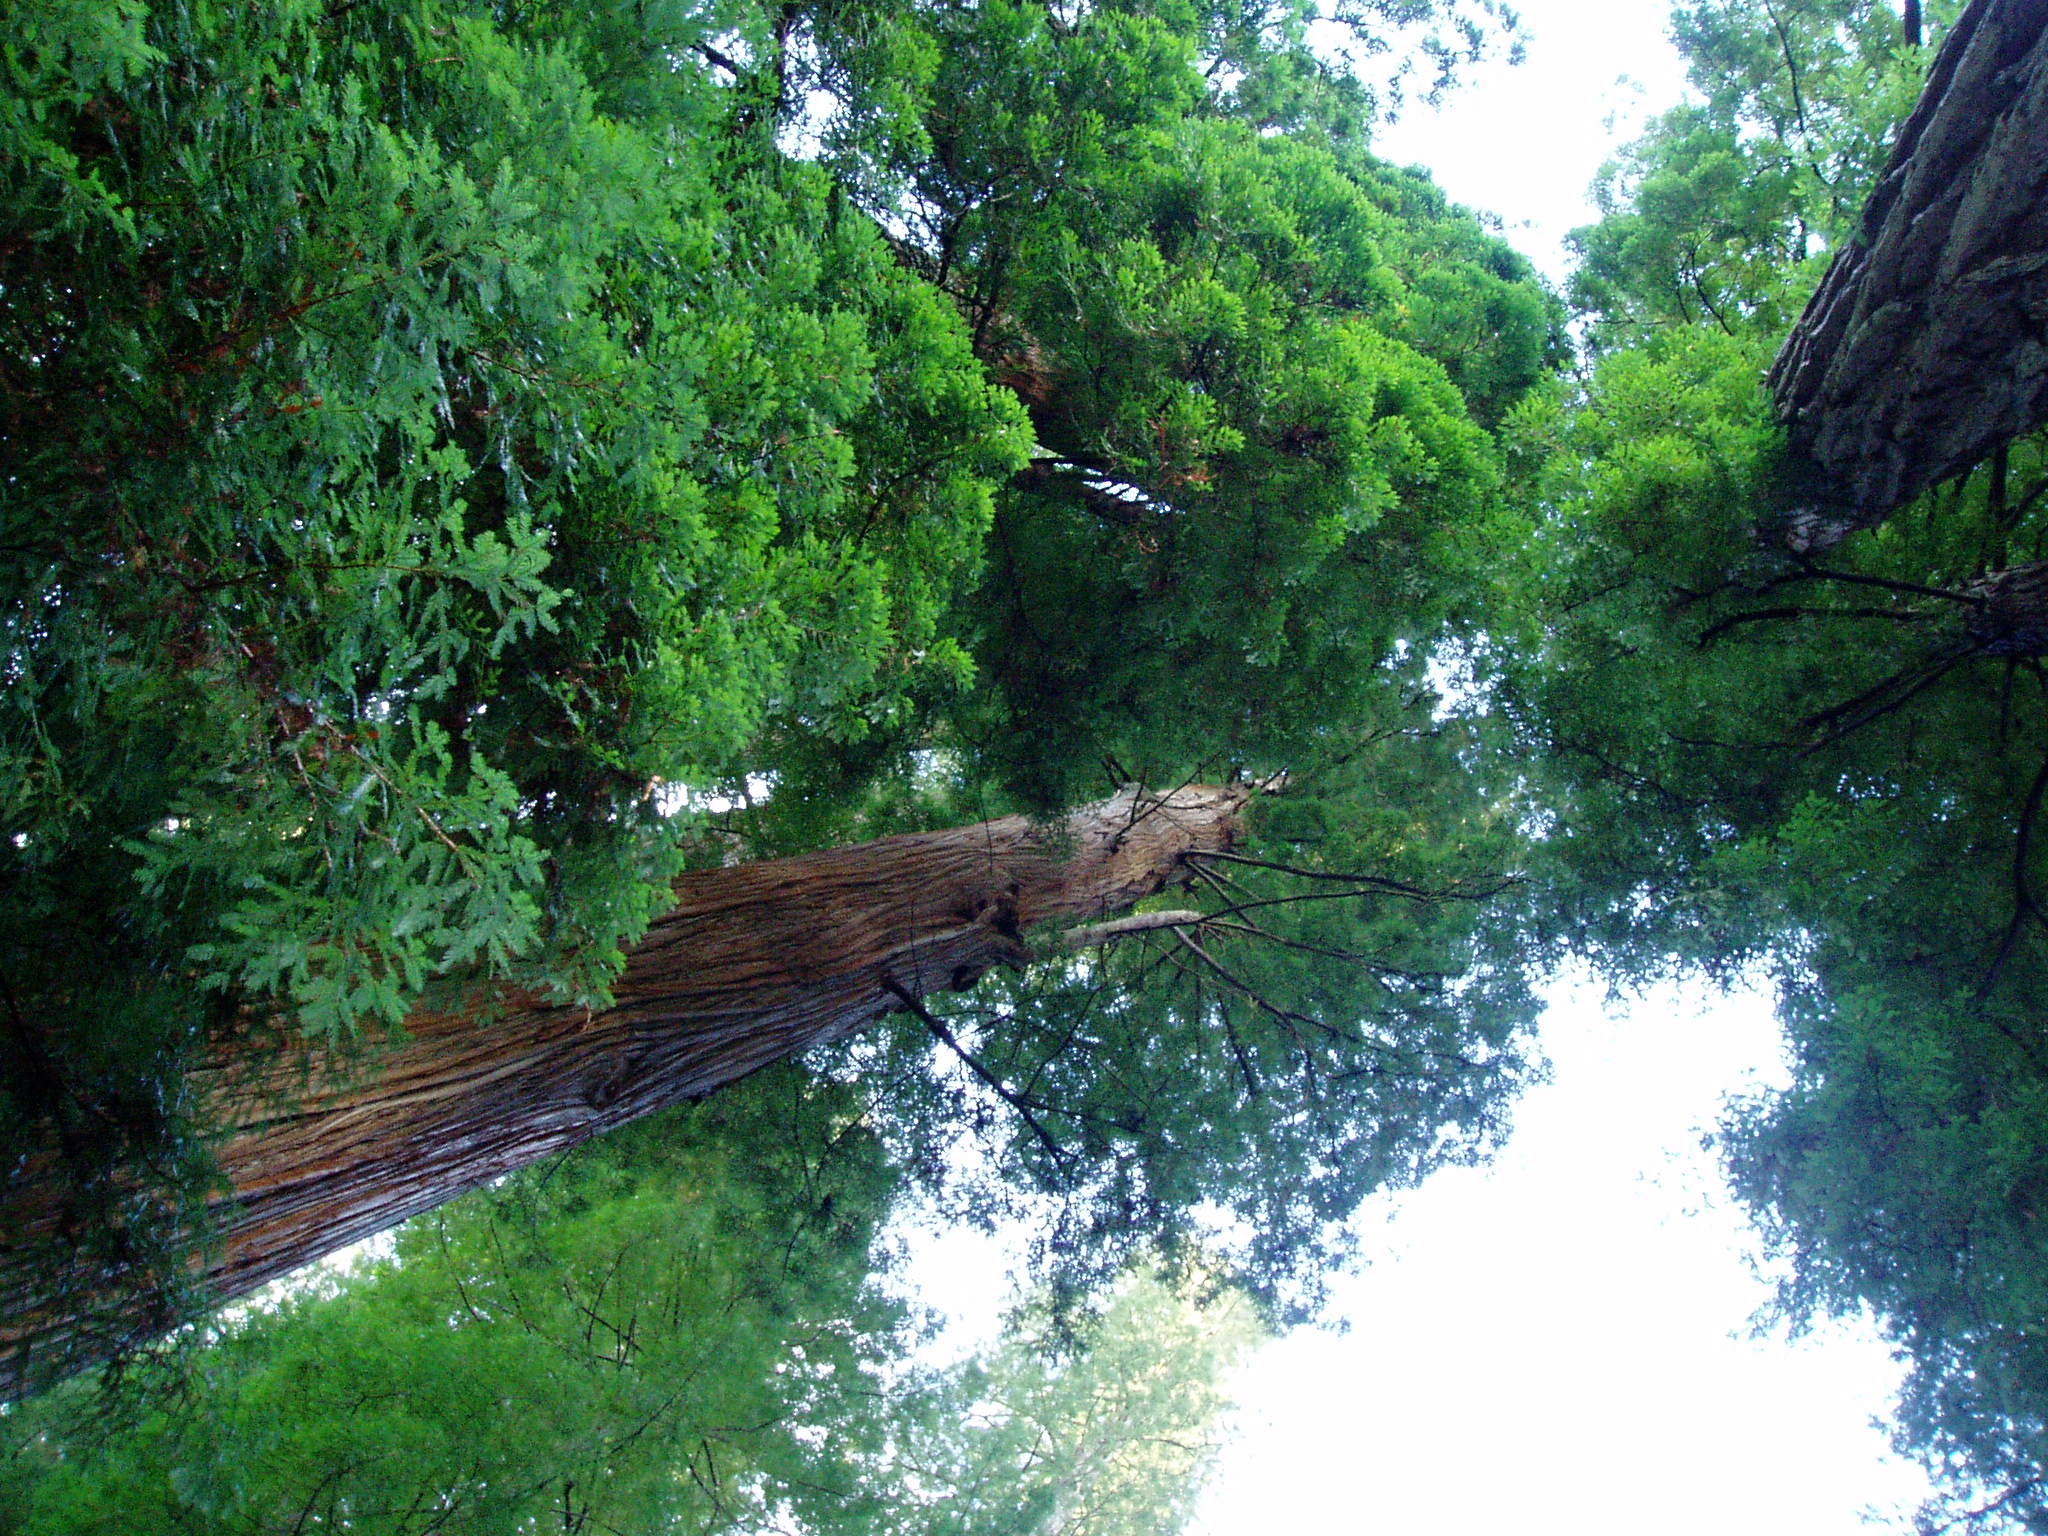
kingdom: Plantae
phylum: Tracheophyta
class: Pinopsida
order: Pinales
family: Cupressaceae
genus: Sequoia
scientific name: Sequoia sempervirens
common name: Coast redwood
